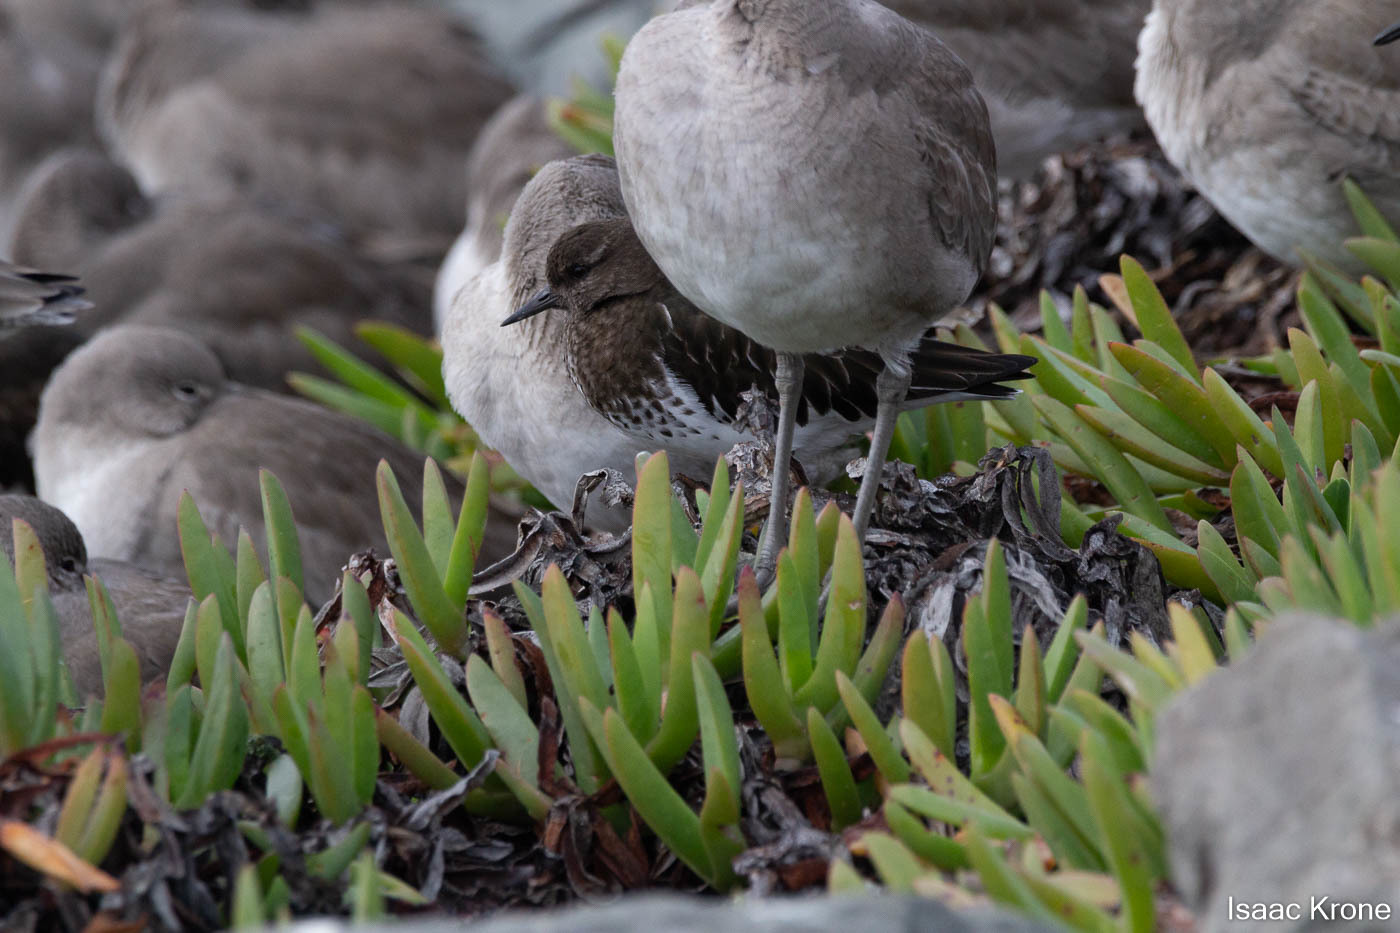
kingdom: Animalia
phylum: Chordata
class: Aves
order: Charadriiformes
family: Scolopacidae
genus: Arenaria
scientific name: Arenaria melanocephala
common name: Black turnstone
